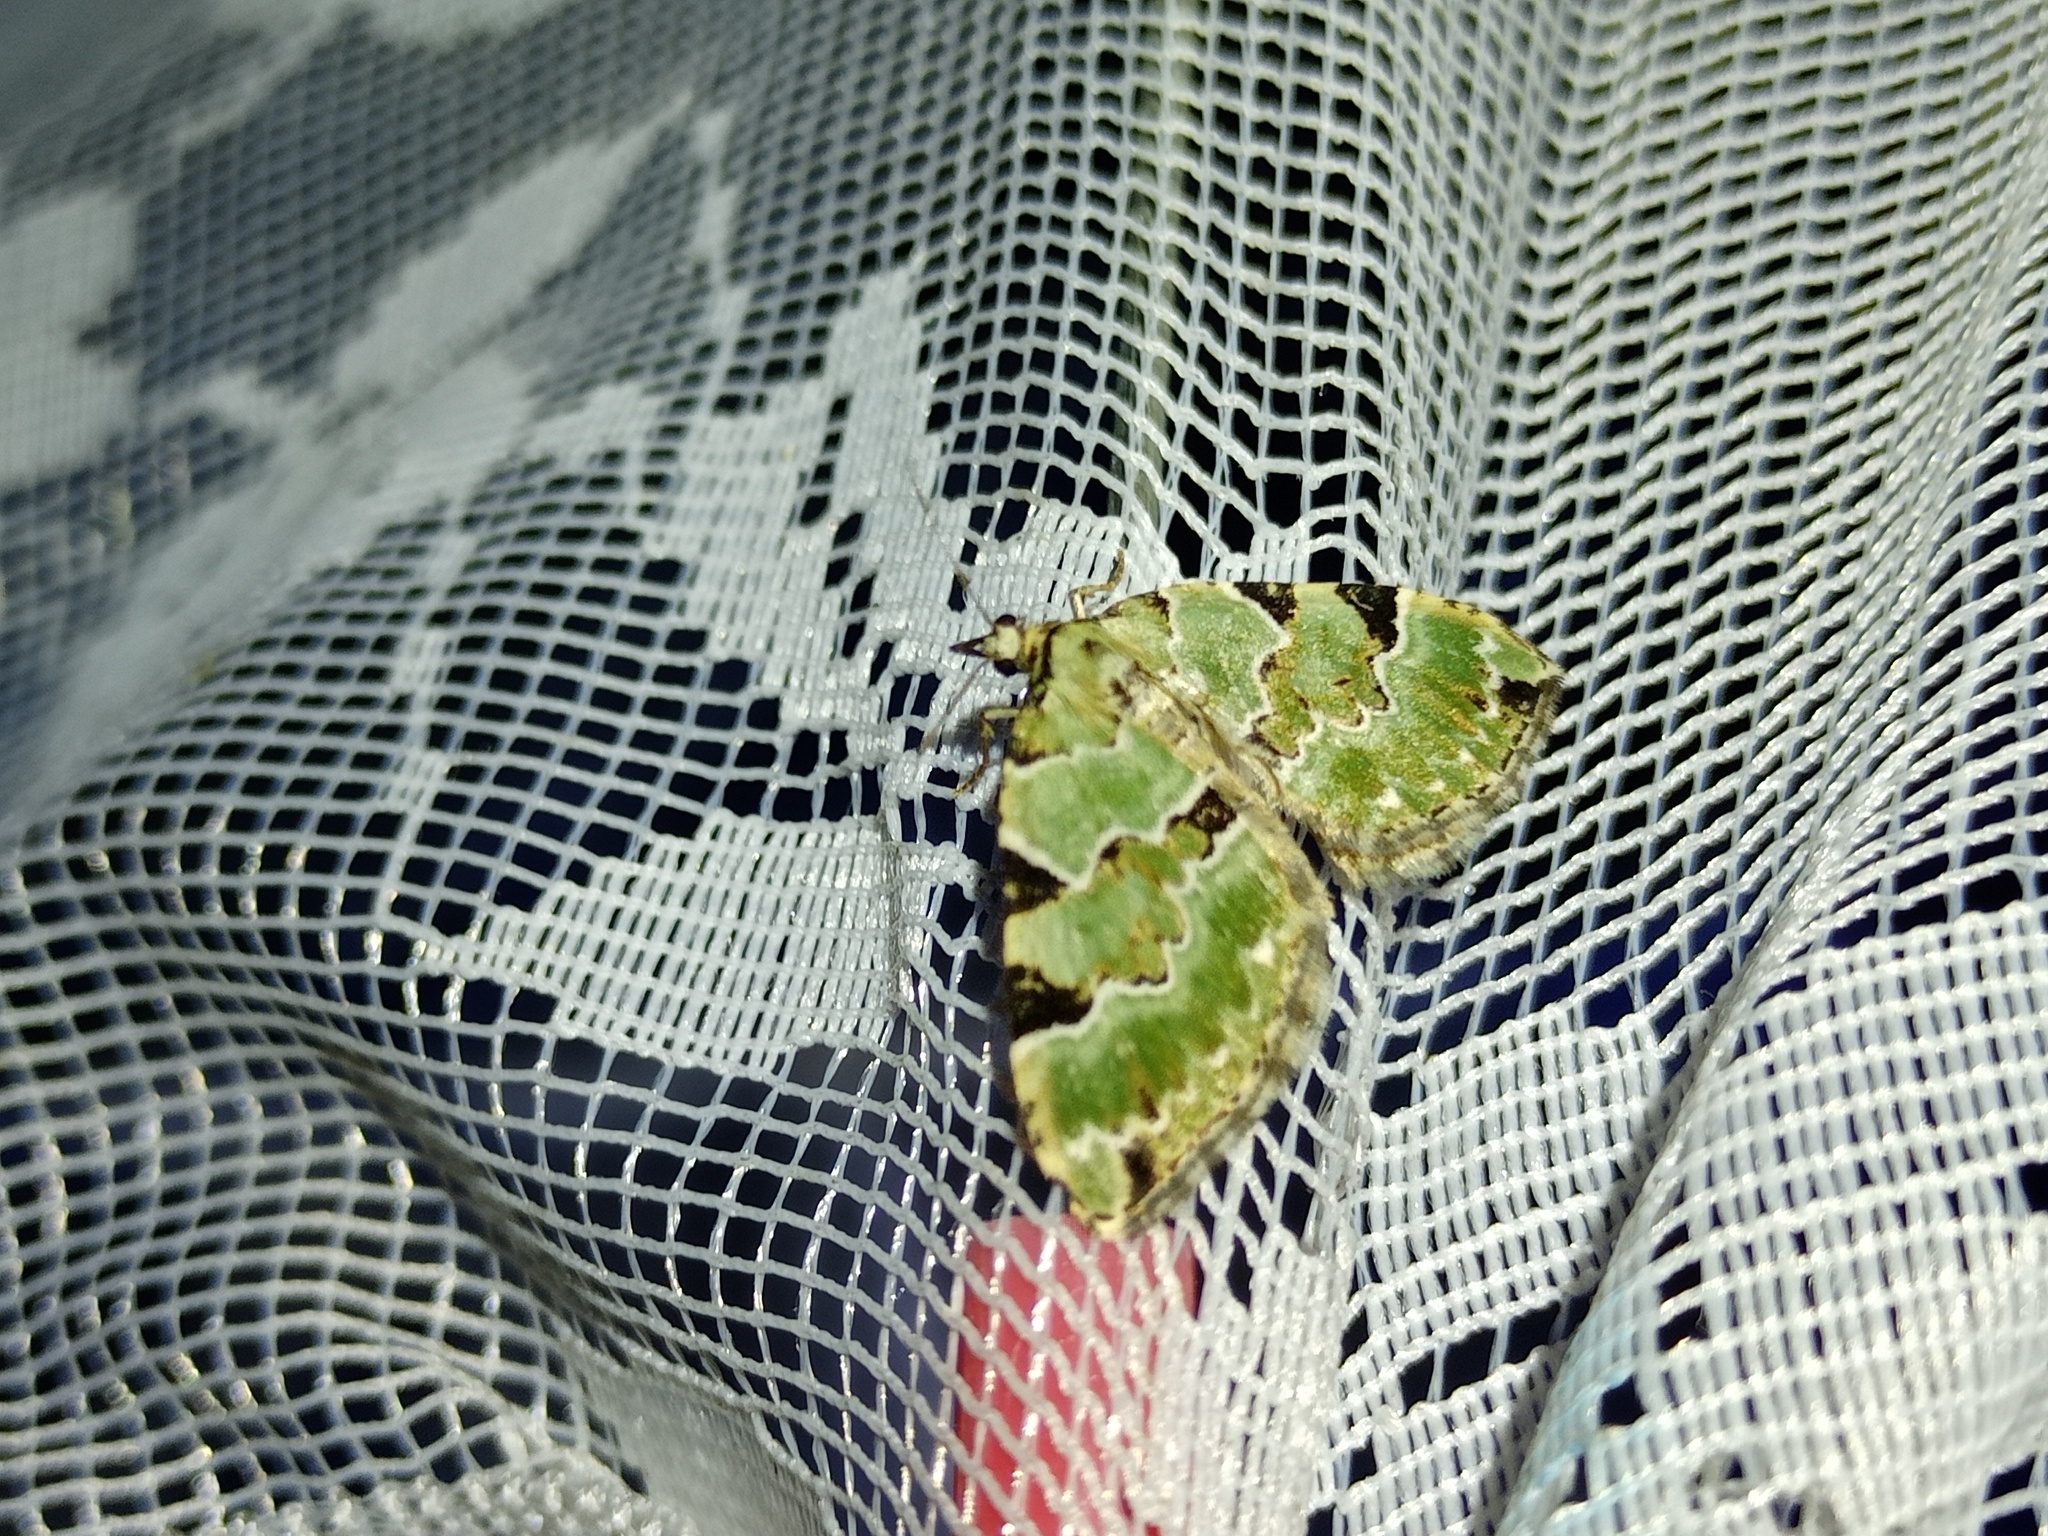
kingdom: Animalia
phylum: Arthropoda
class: Insecta
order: Lepidoptera
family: Geometridae
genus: Colostygia
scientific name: Colostygia pectinataria
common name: Green carpet
